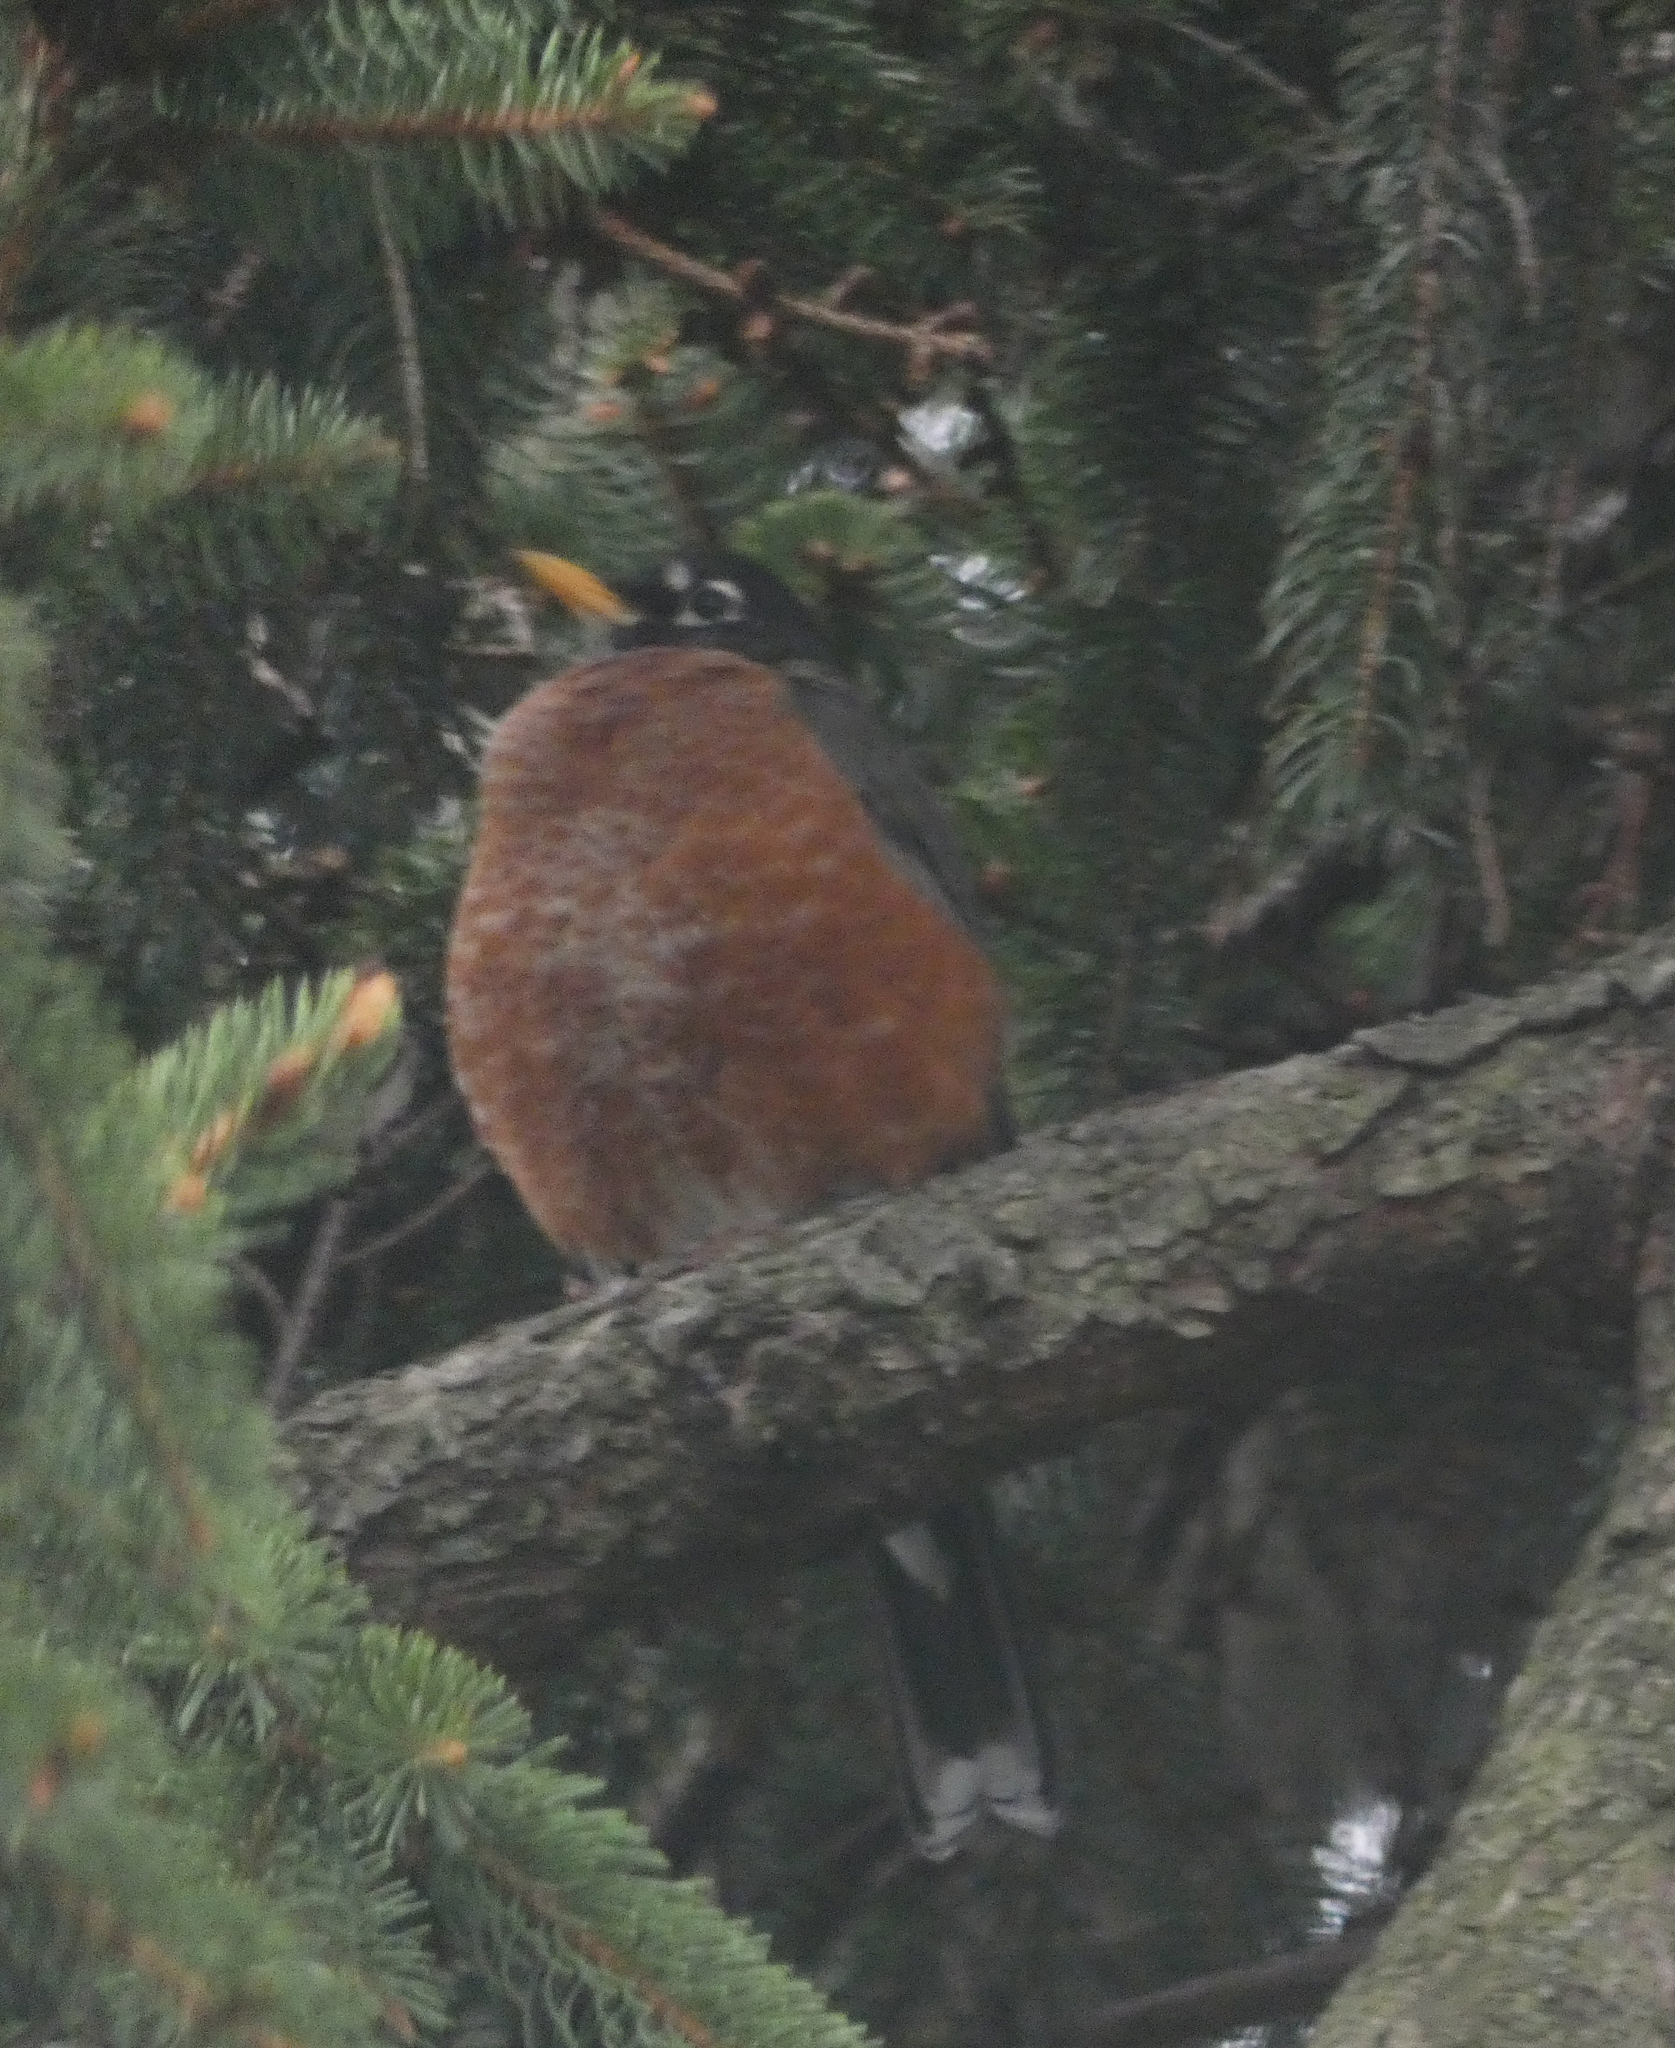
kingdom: Animalia
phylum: Chordata
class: Aves
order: Passeriformes
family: Turdidae
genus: Turdus
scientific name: Turdus migratorius
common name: American robin
